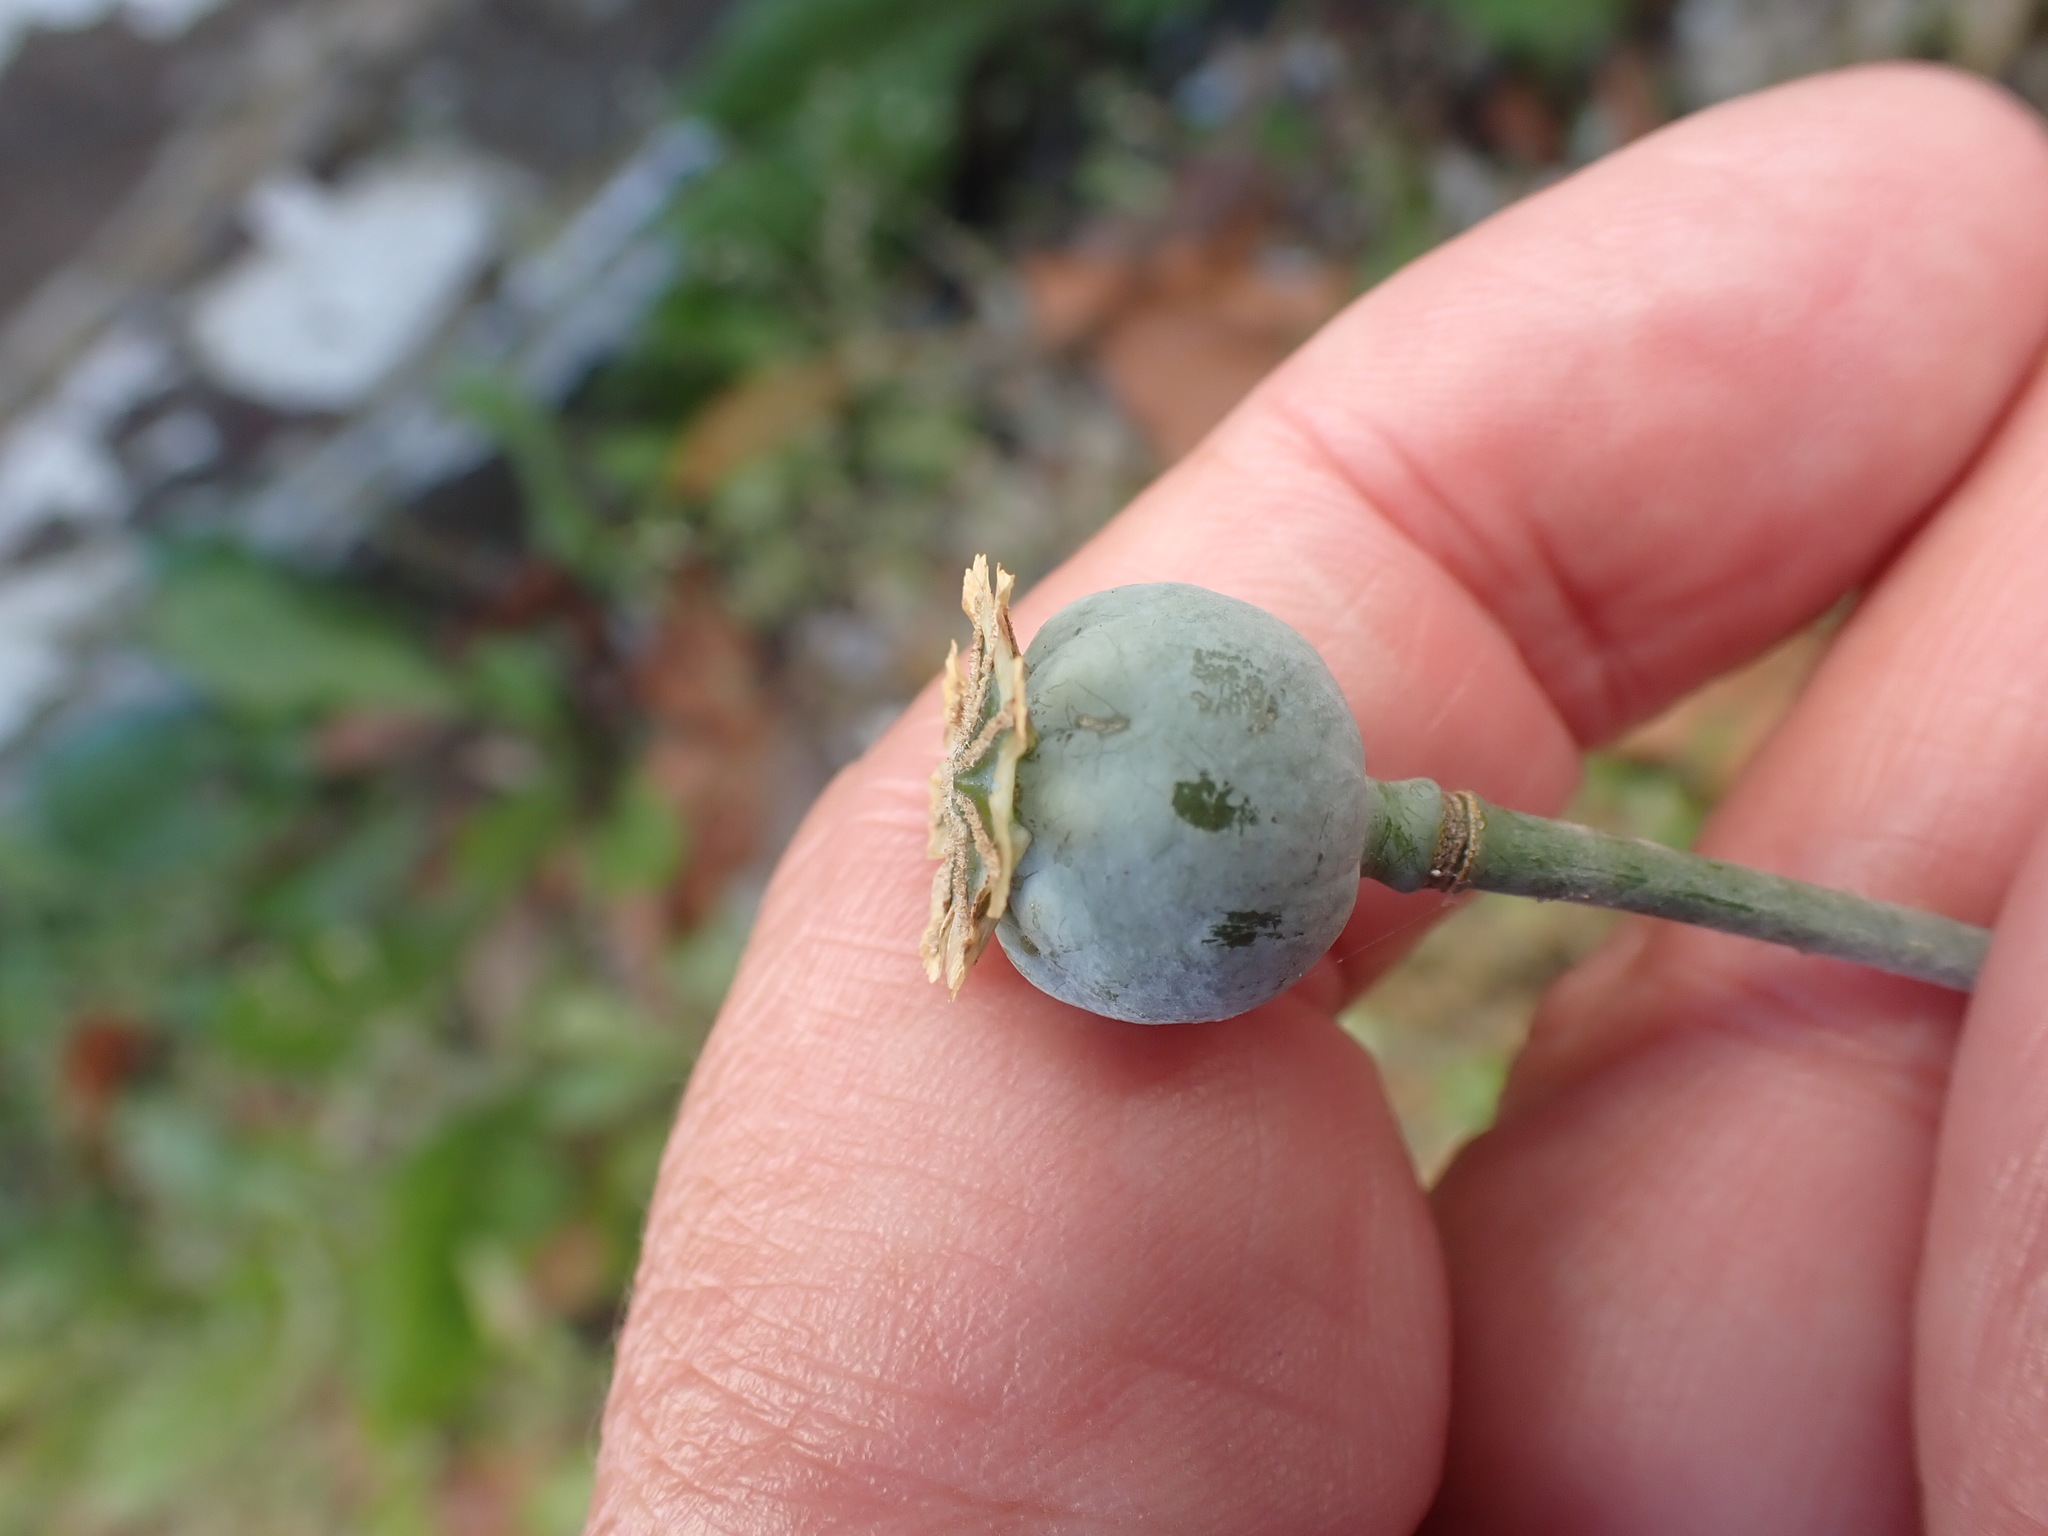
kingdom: Plantae
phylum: Tracheophyta
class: Magnoliopsida
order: Ranunculales
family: Papaveraceae
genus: Papaver
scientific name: Papaver somniferum
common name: Opium poppy
